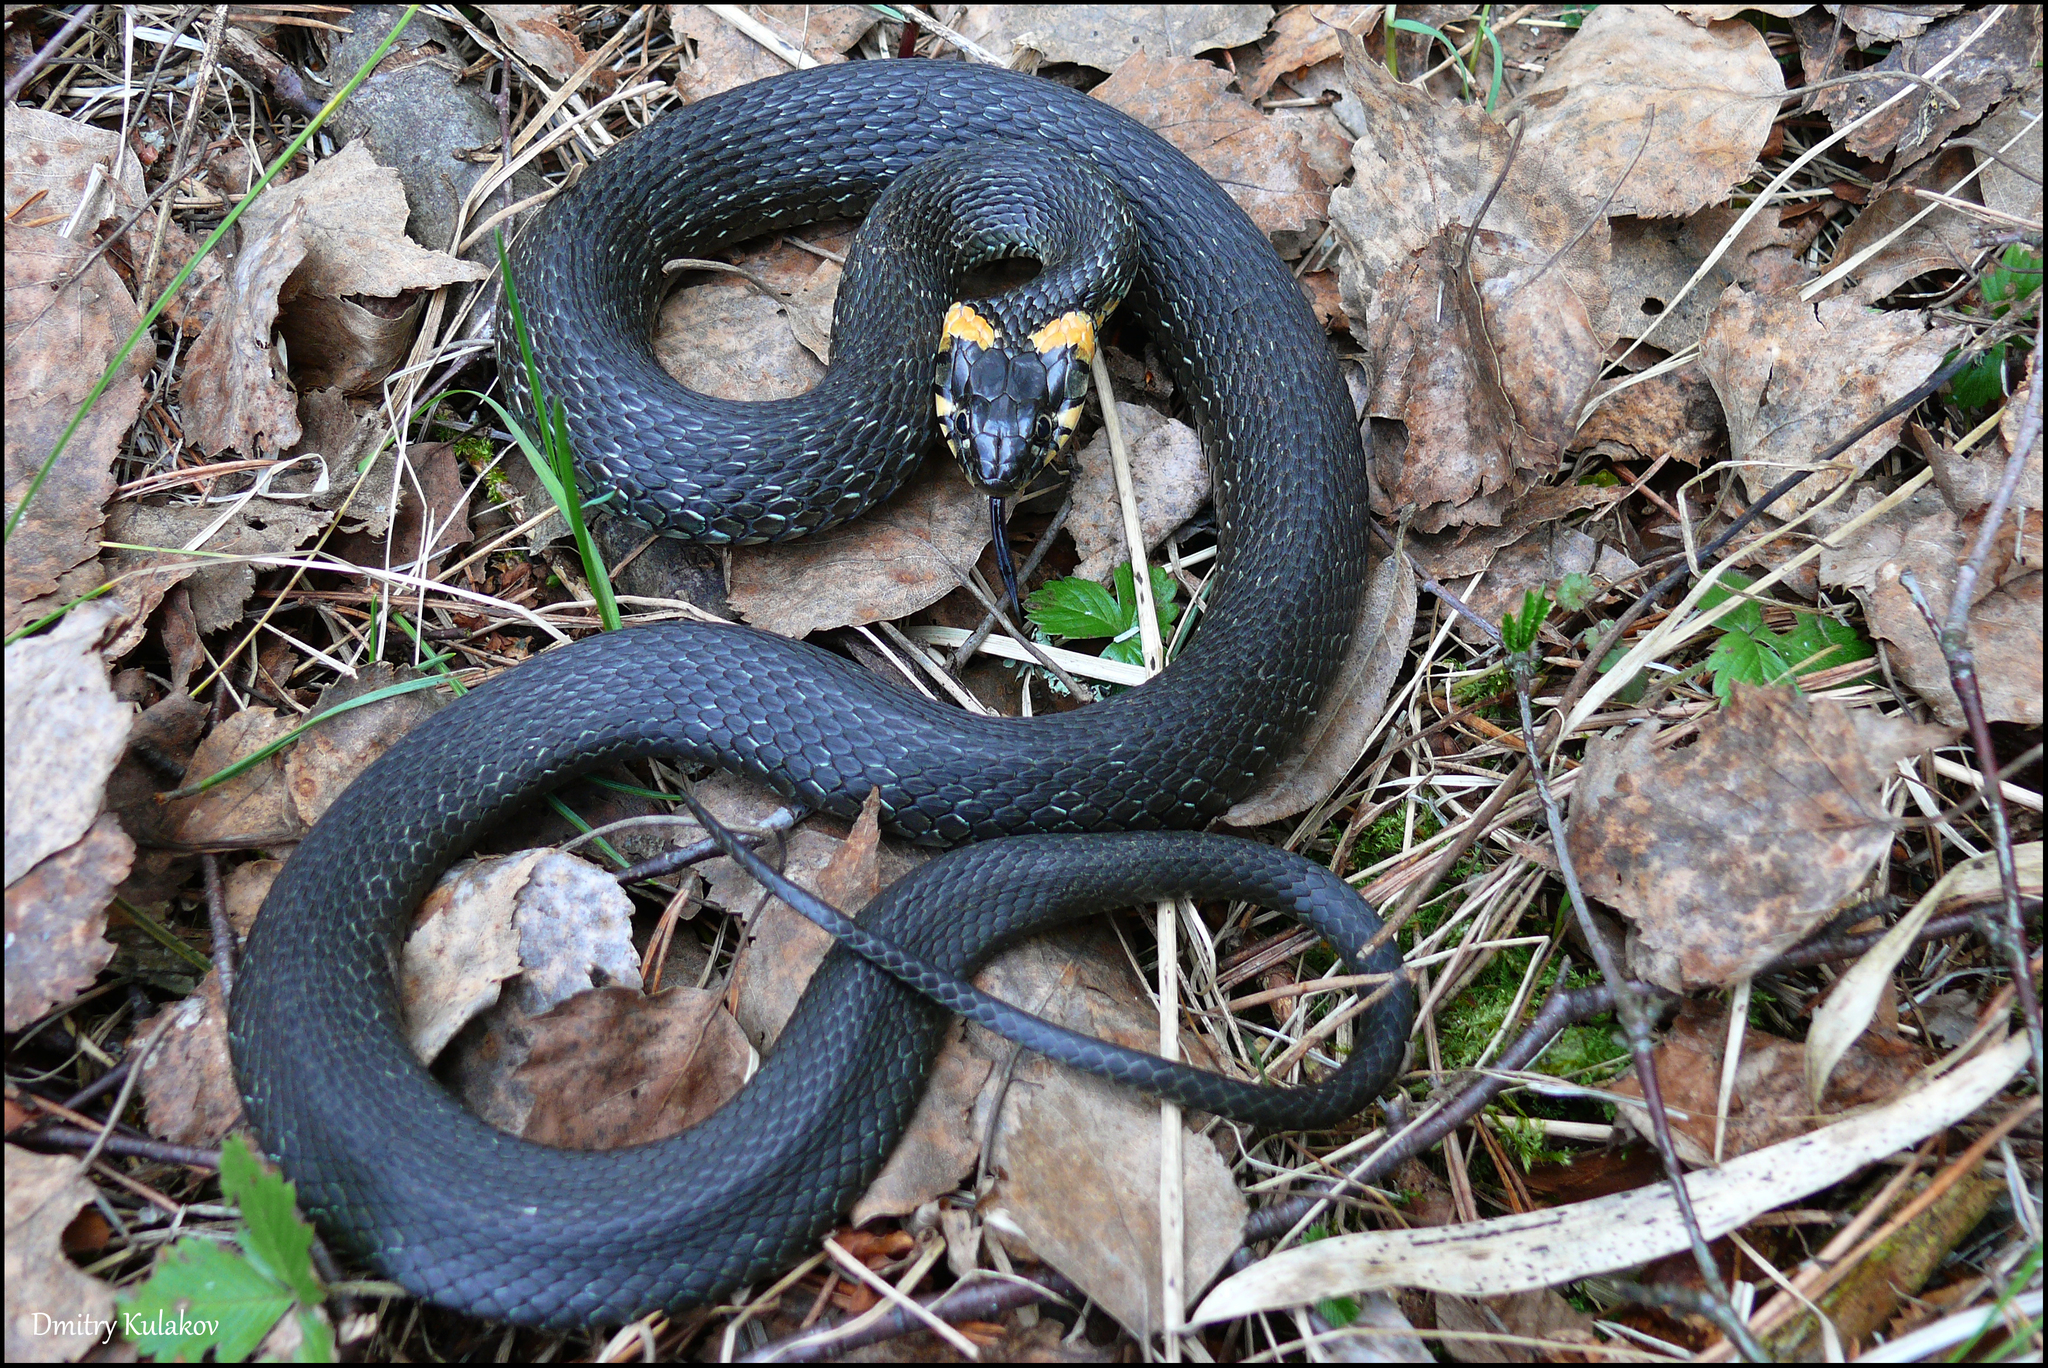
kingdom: Animalia
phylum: Chordata
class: Squamata
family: Colubridae
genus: Natrix
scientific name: Natrix natrix
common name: Grass snake
